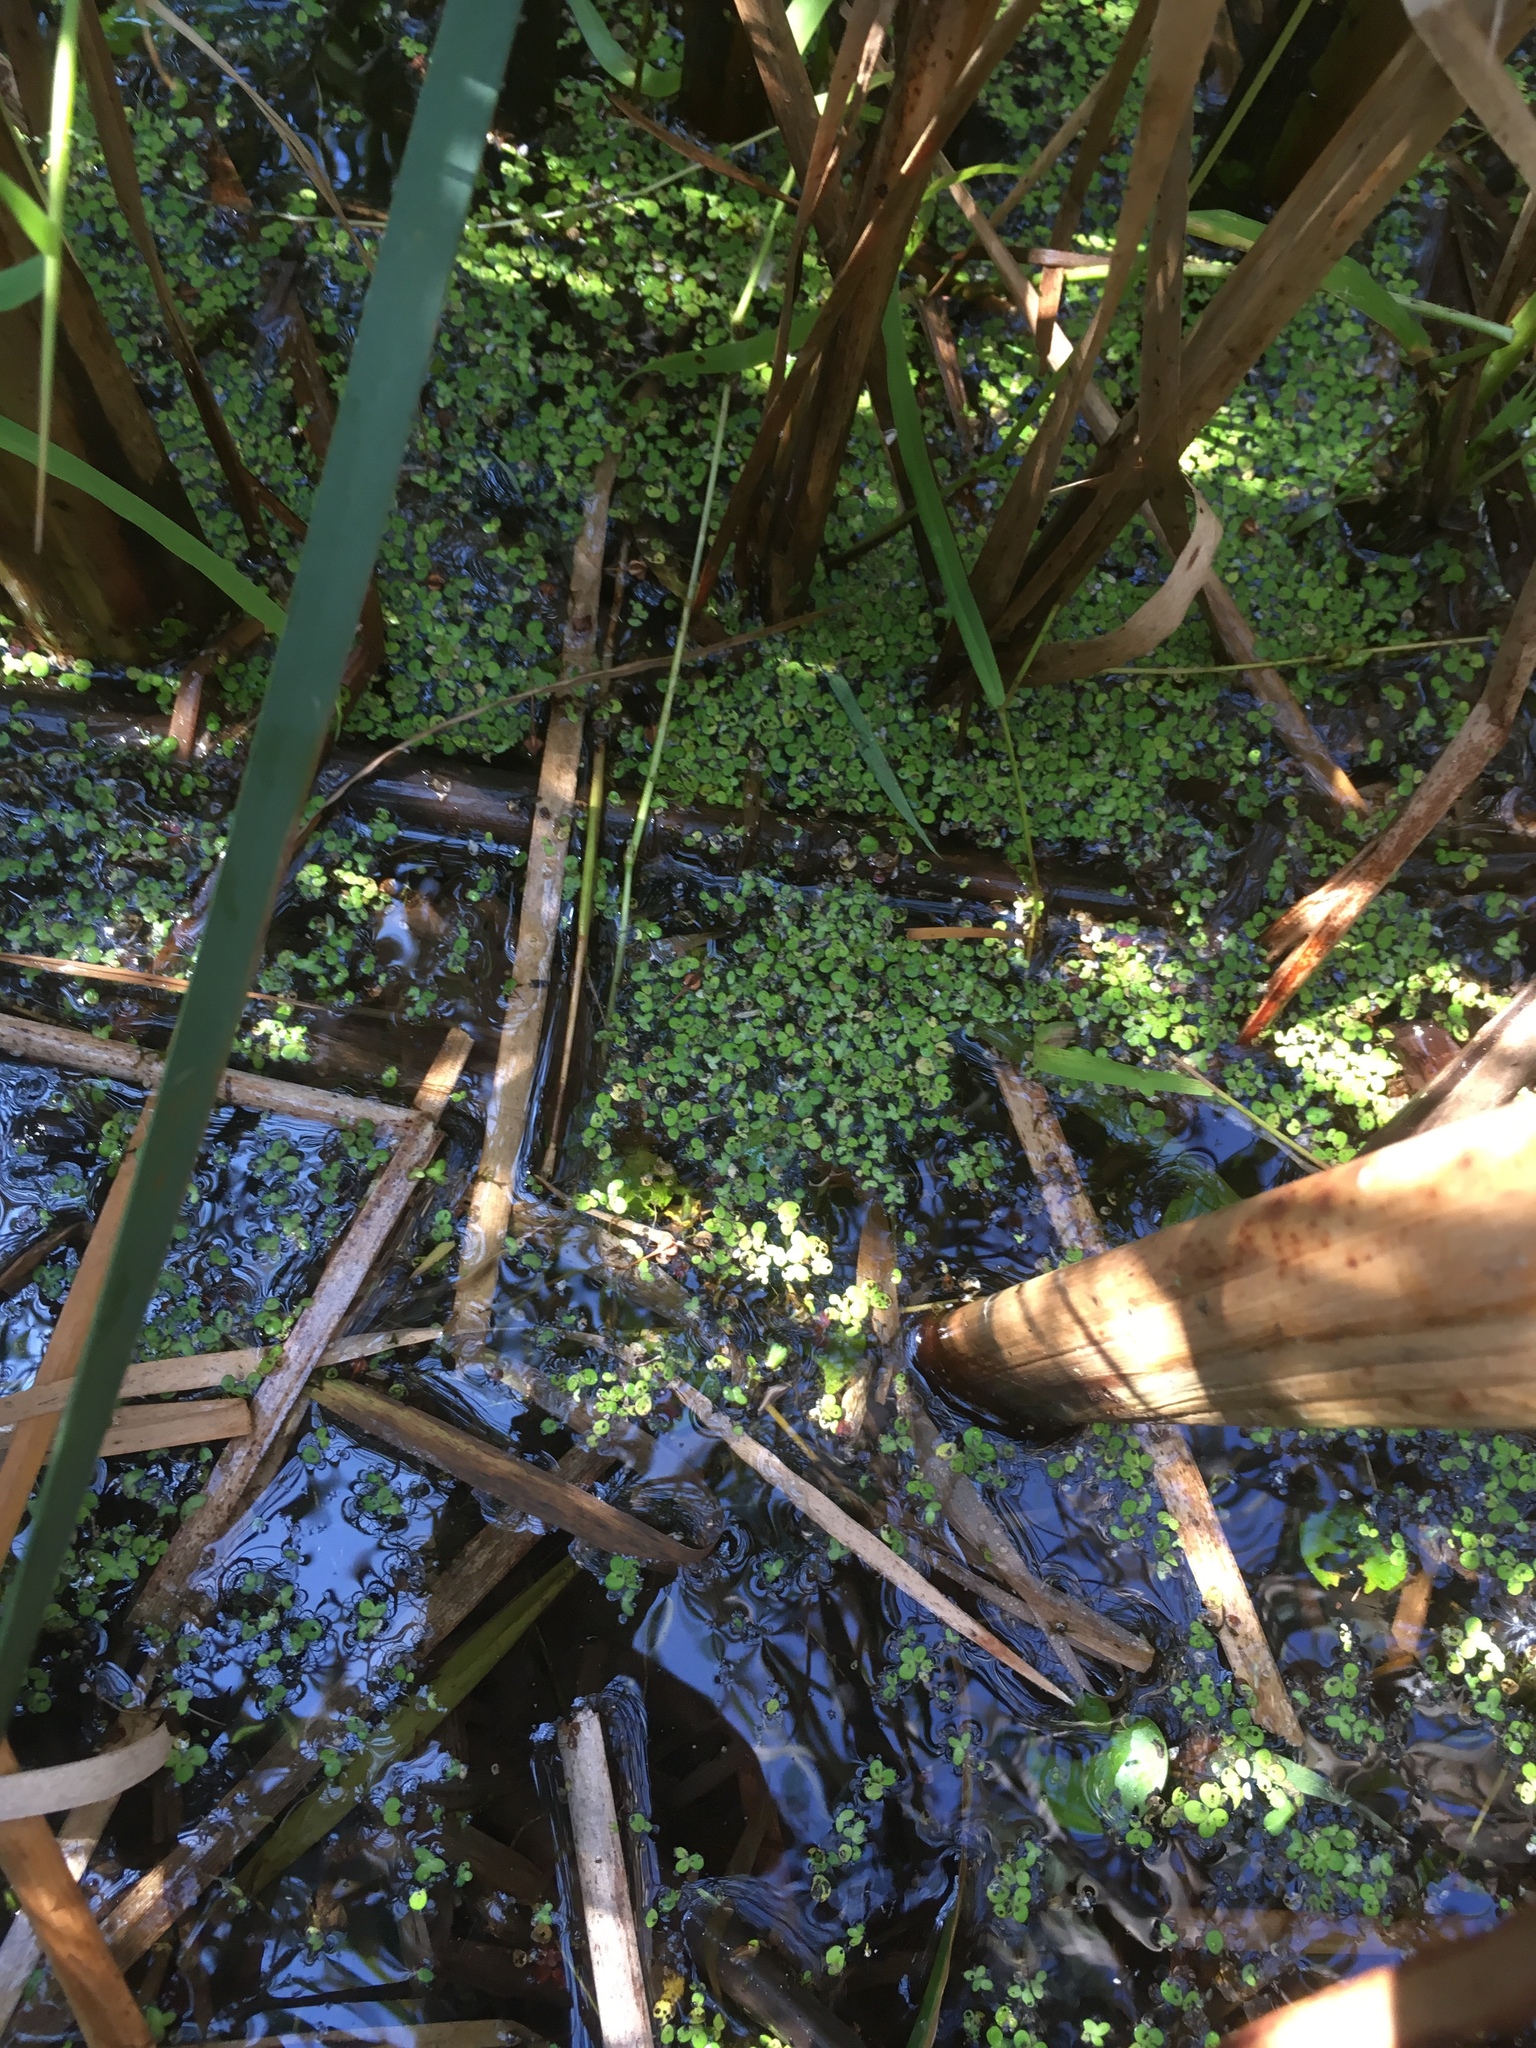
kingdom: Plantae
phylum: Tracheophyta
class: Liliopsida
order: Alismatales
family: Araceae
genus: Lemna
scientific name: Lemna minor
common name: Common duckweed
